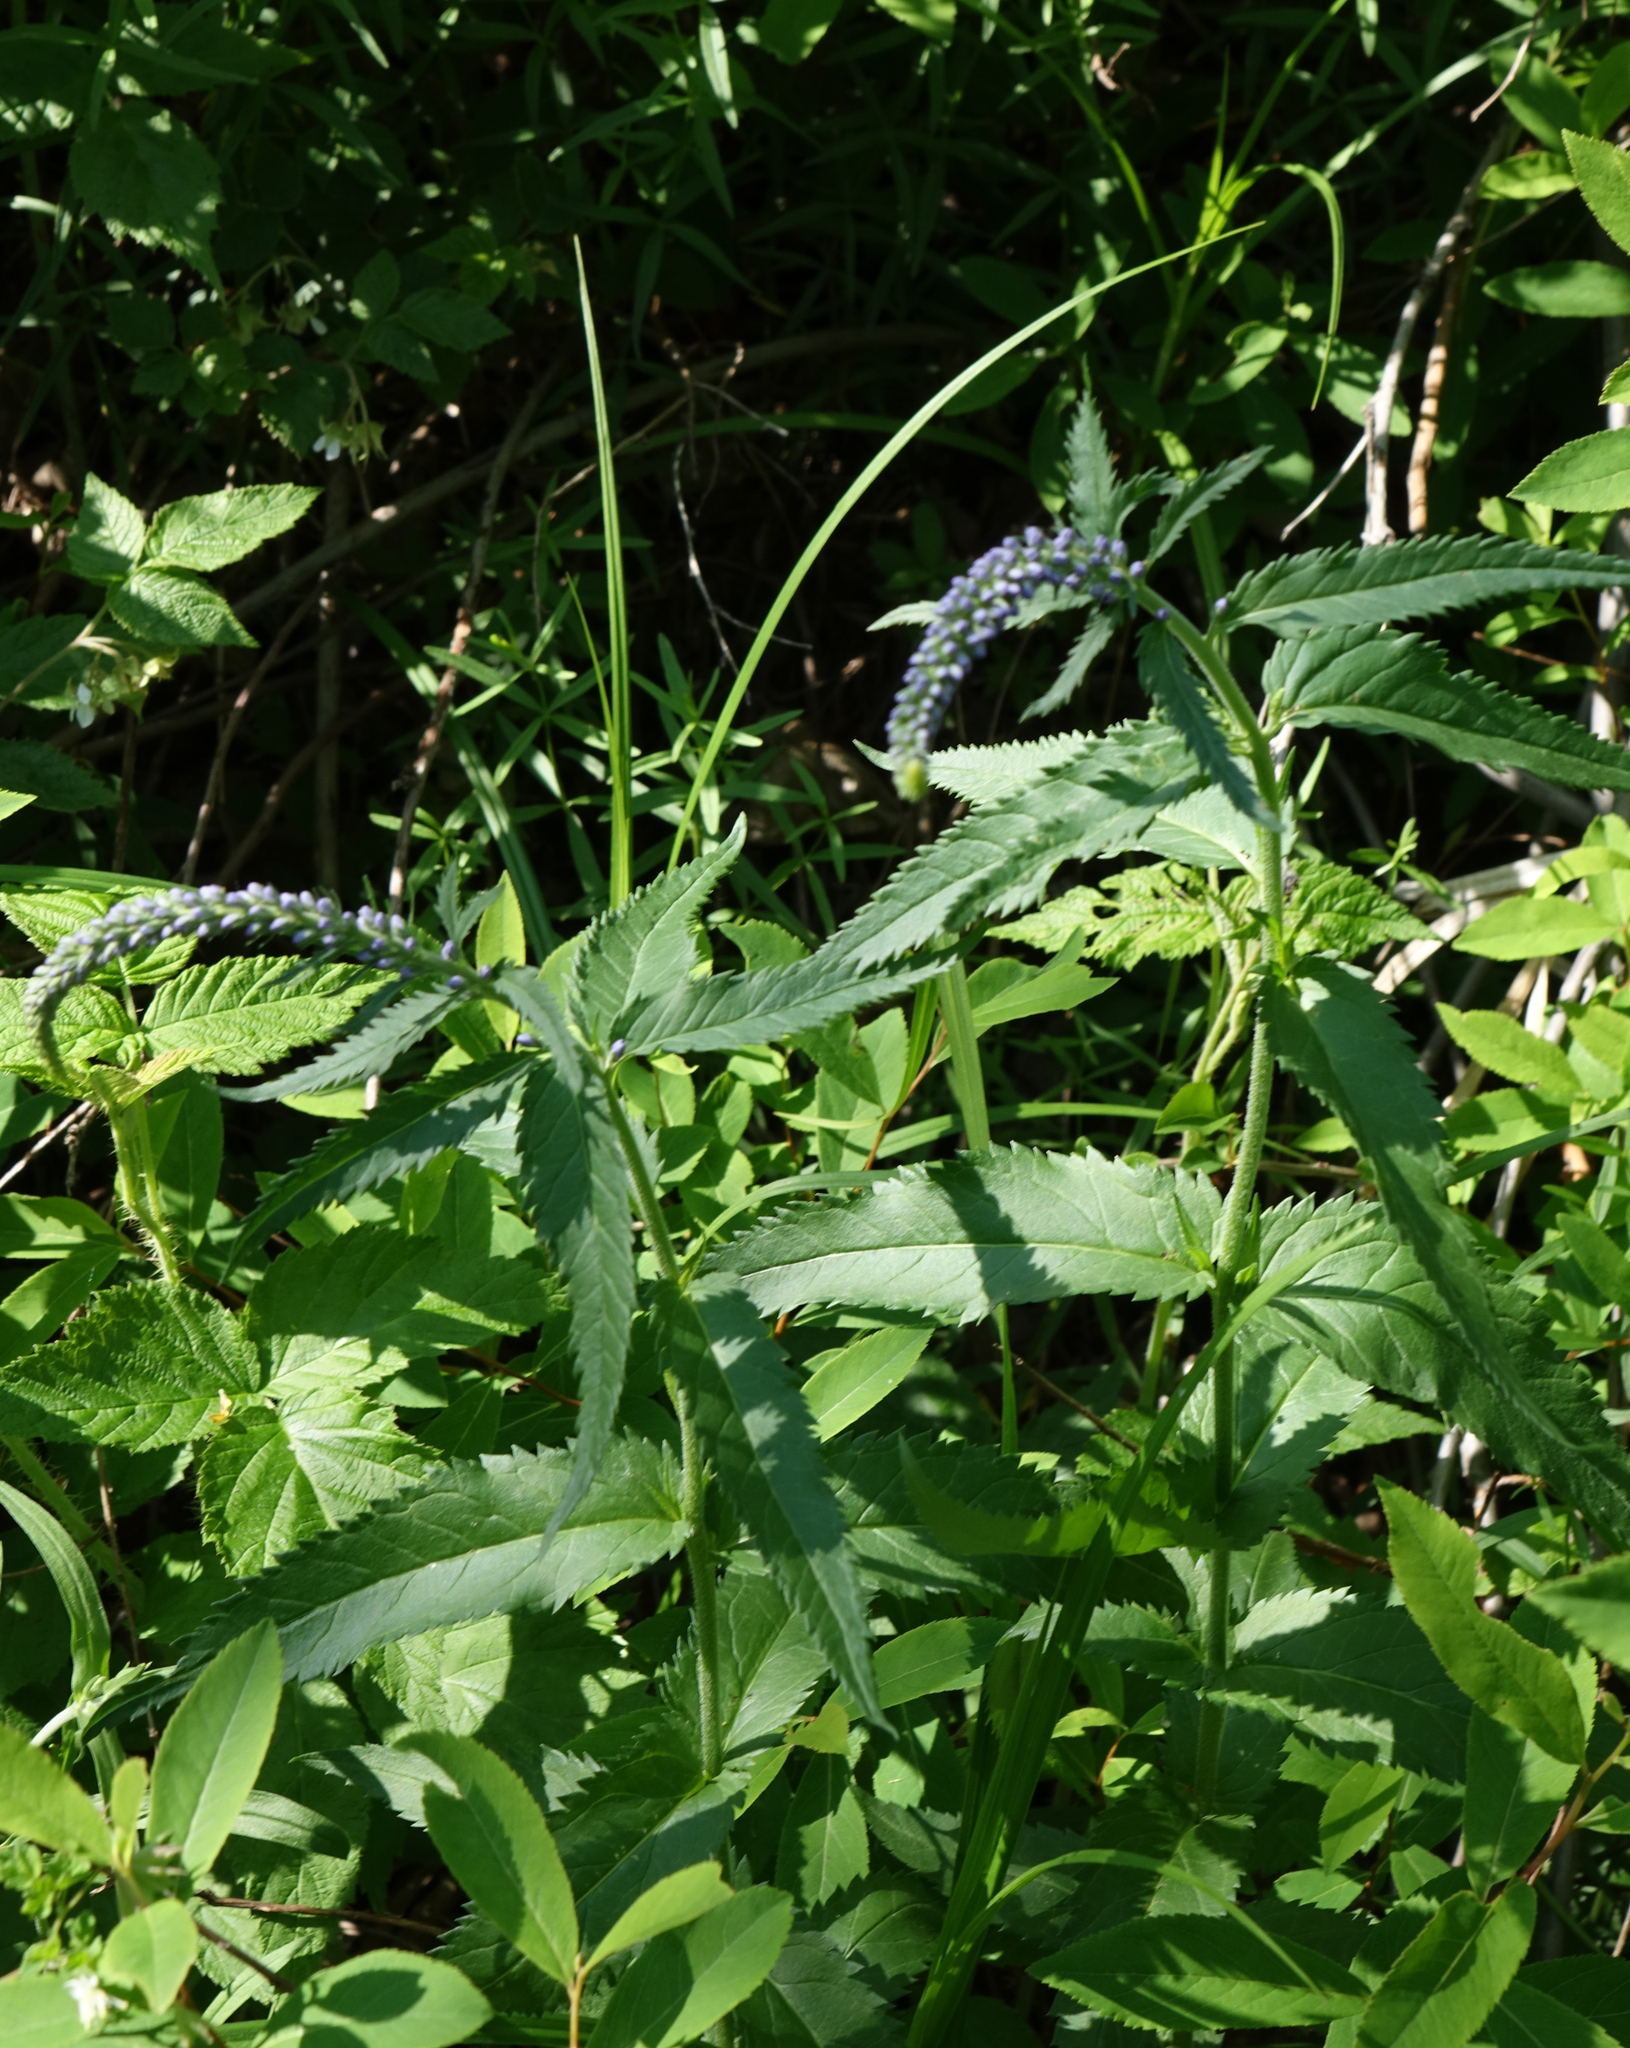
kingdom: Plantae
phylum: Tracheophyta
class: Magnoliopsida
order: Lamiales
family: Plantaginaceae
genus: Veronica
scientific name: Veronica longifolia
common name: Garden speedwell
